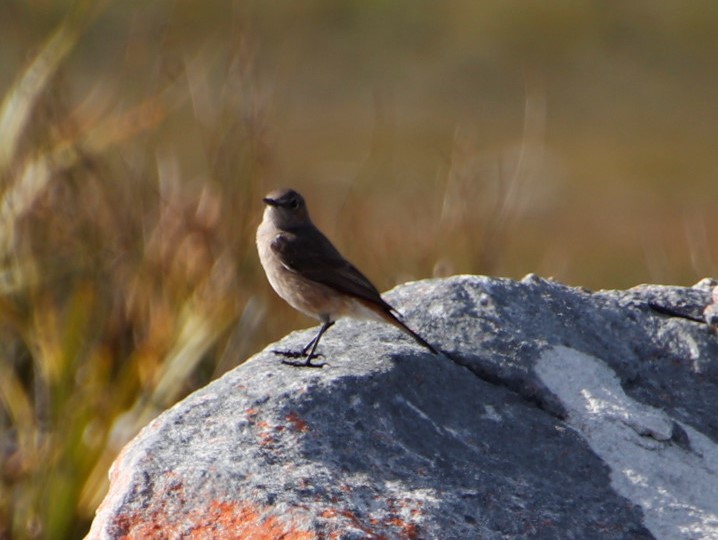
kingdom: Animalia
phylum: Chordata
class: Aves
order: Passeriformes
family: Muscicapidae
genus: Oenanthe
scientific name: Oenanthe familiaris
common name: Familiar chat
